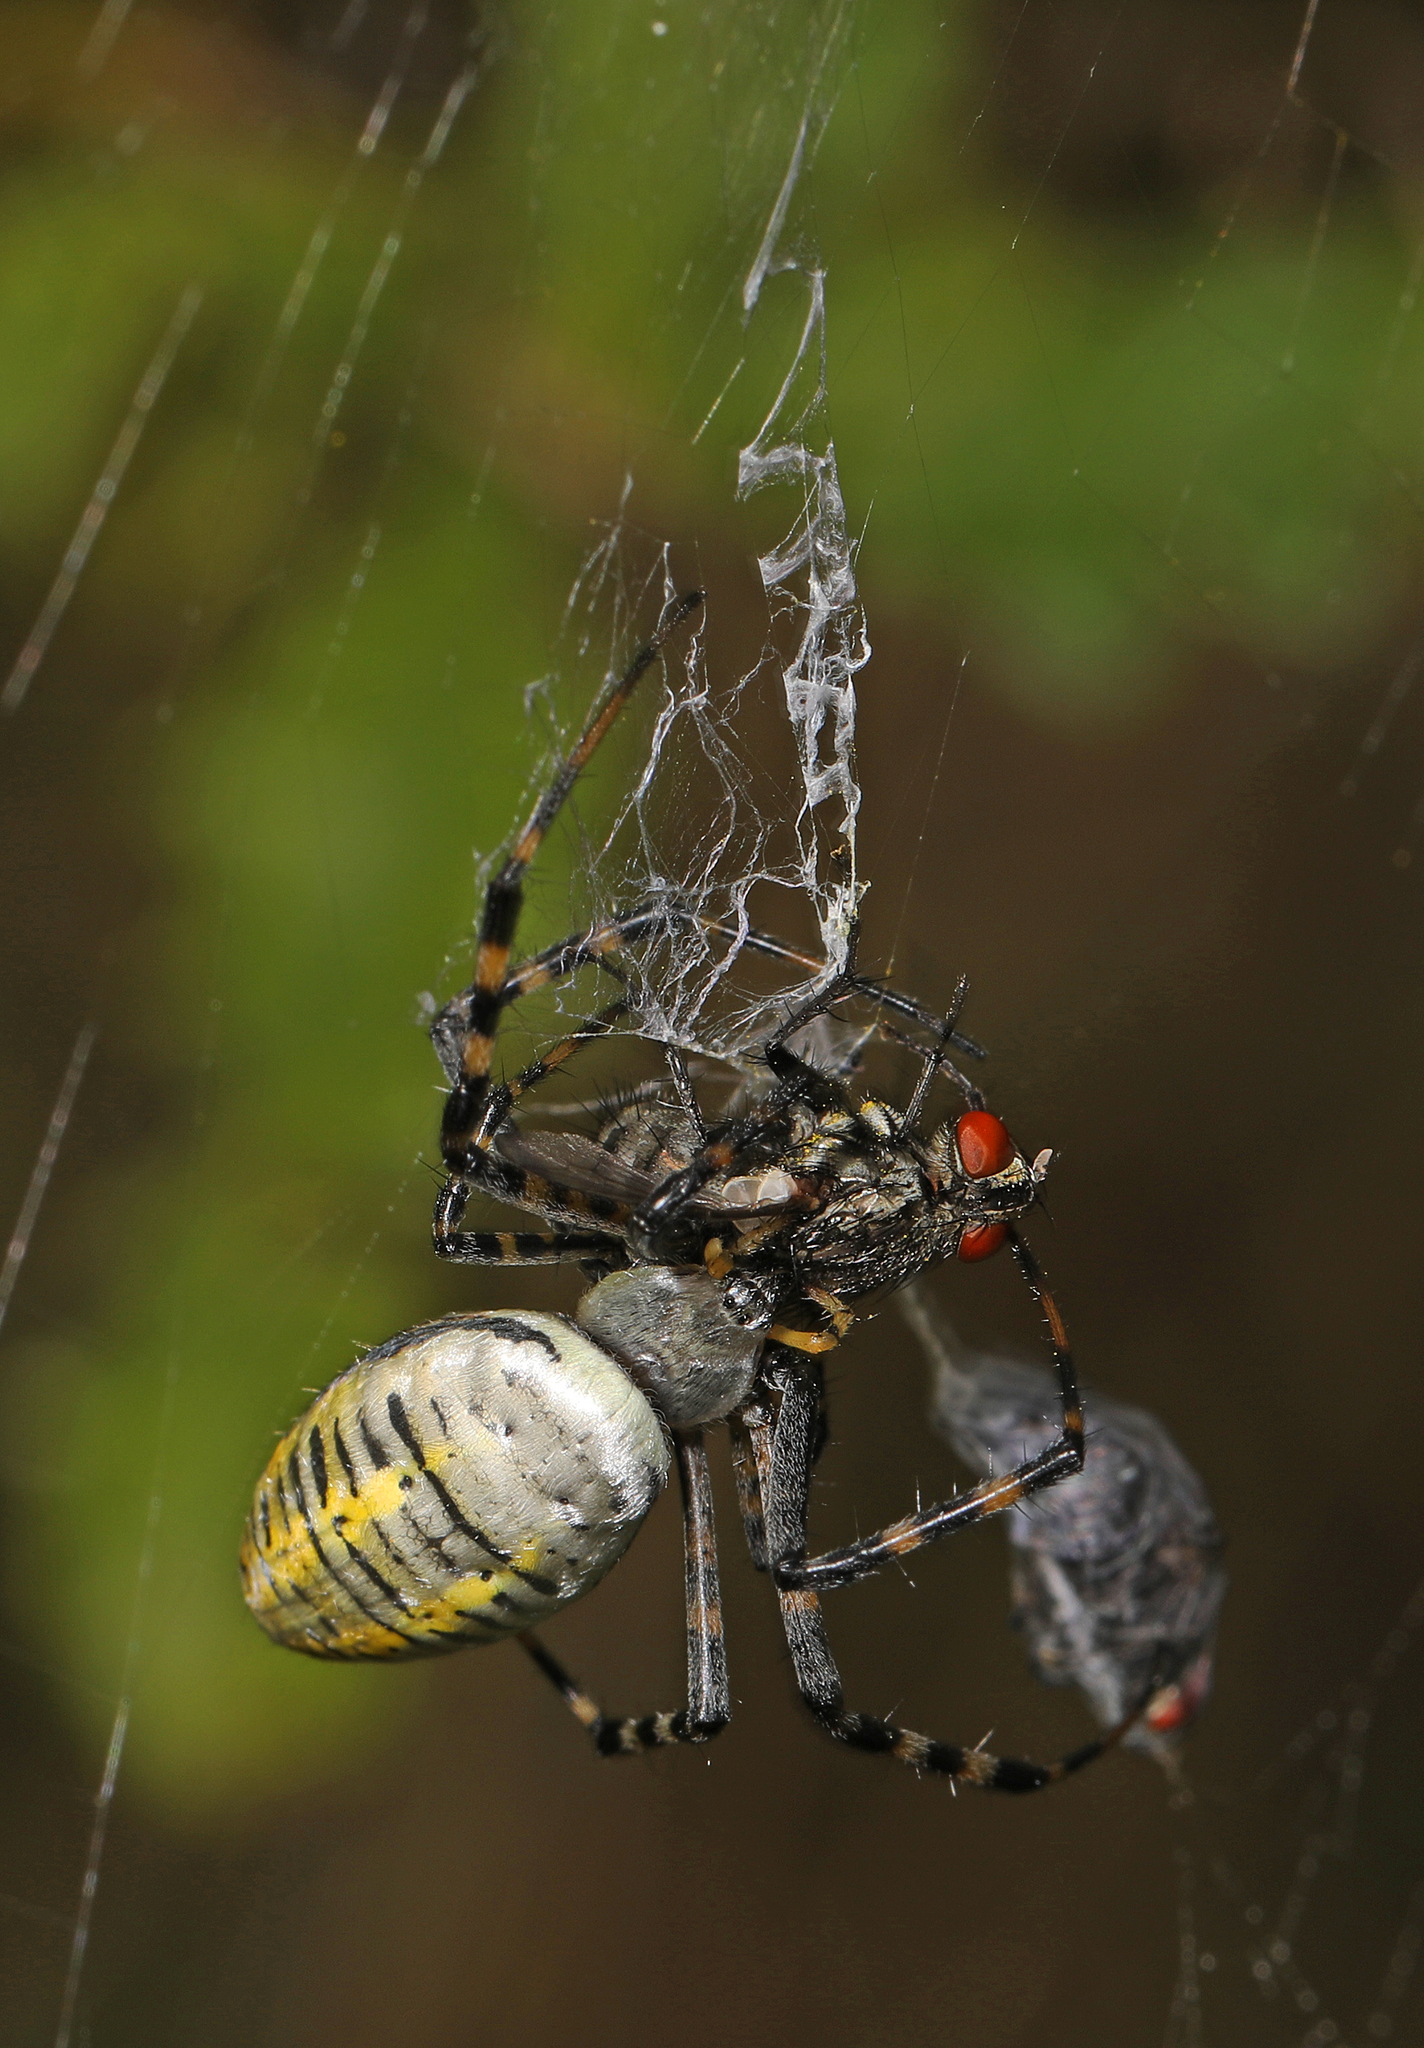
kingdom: Animalia
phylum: Arthropoda
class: Arachnida
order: Araneae
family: Araneidae
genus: Argiope
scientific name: Argiope trifasciata
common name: Banded garden spider
